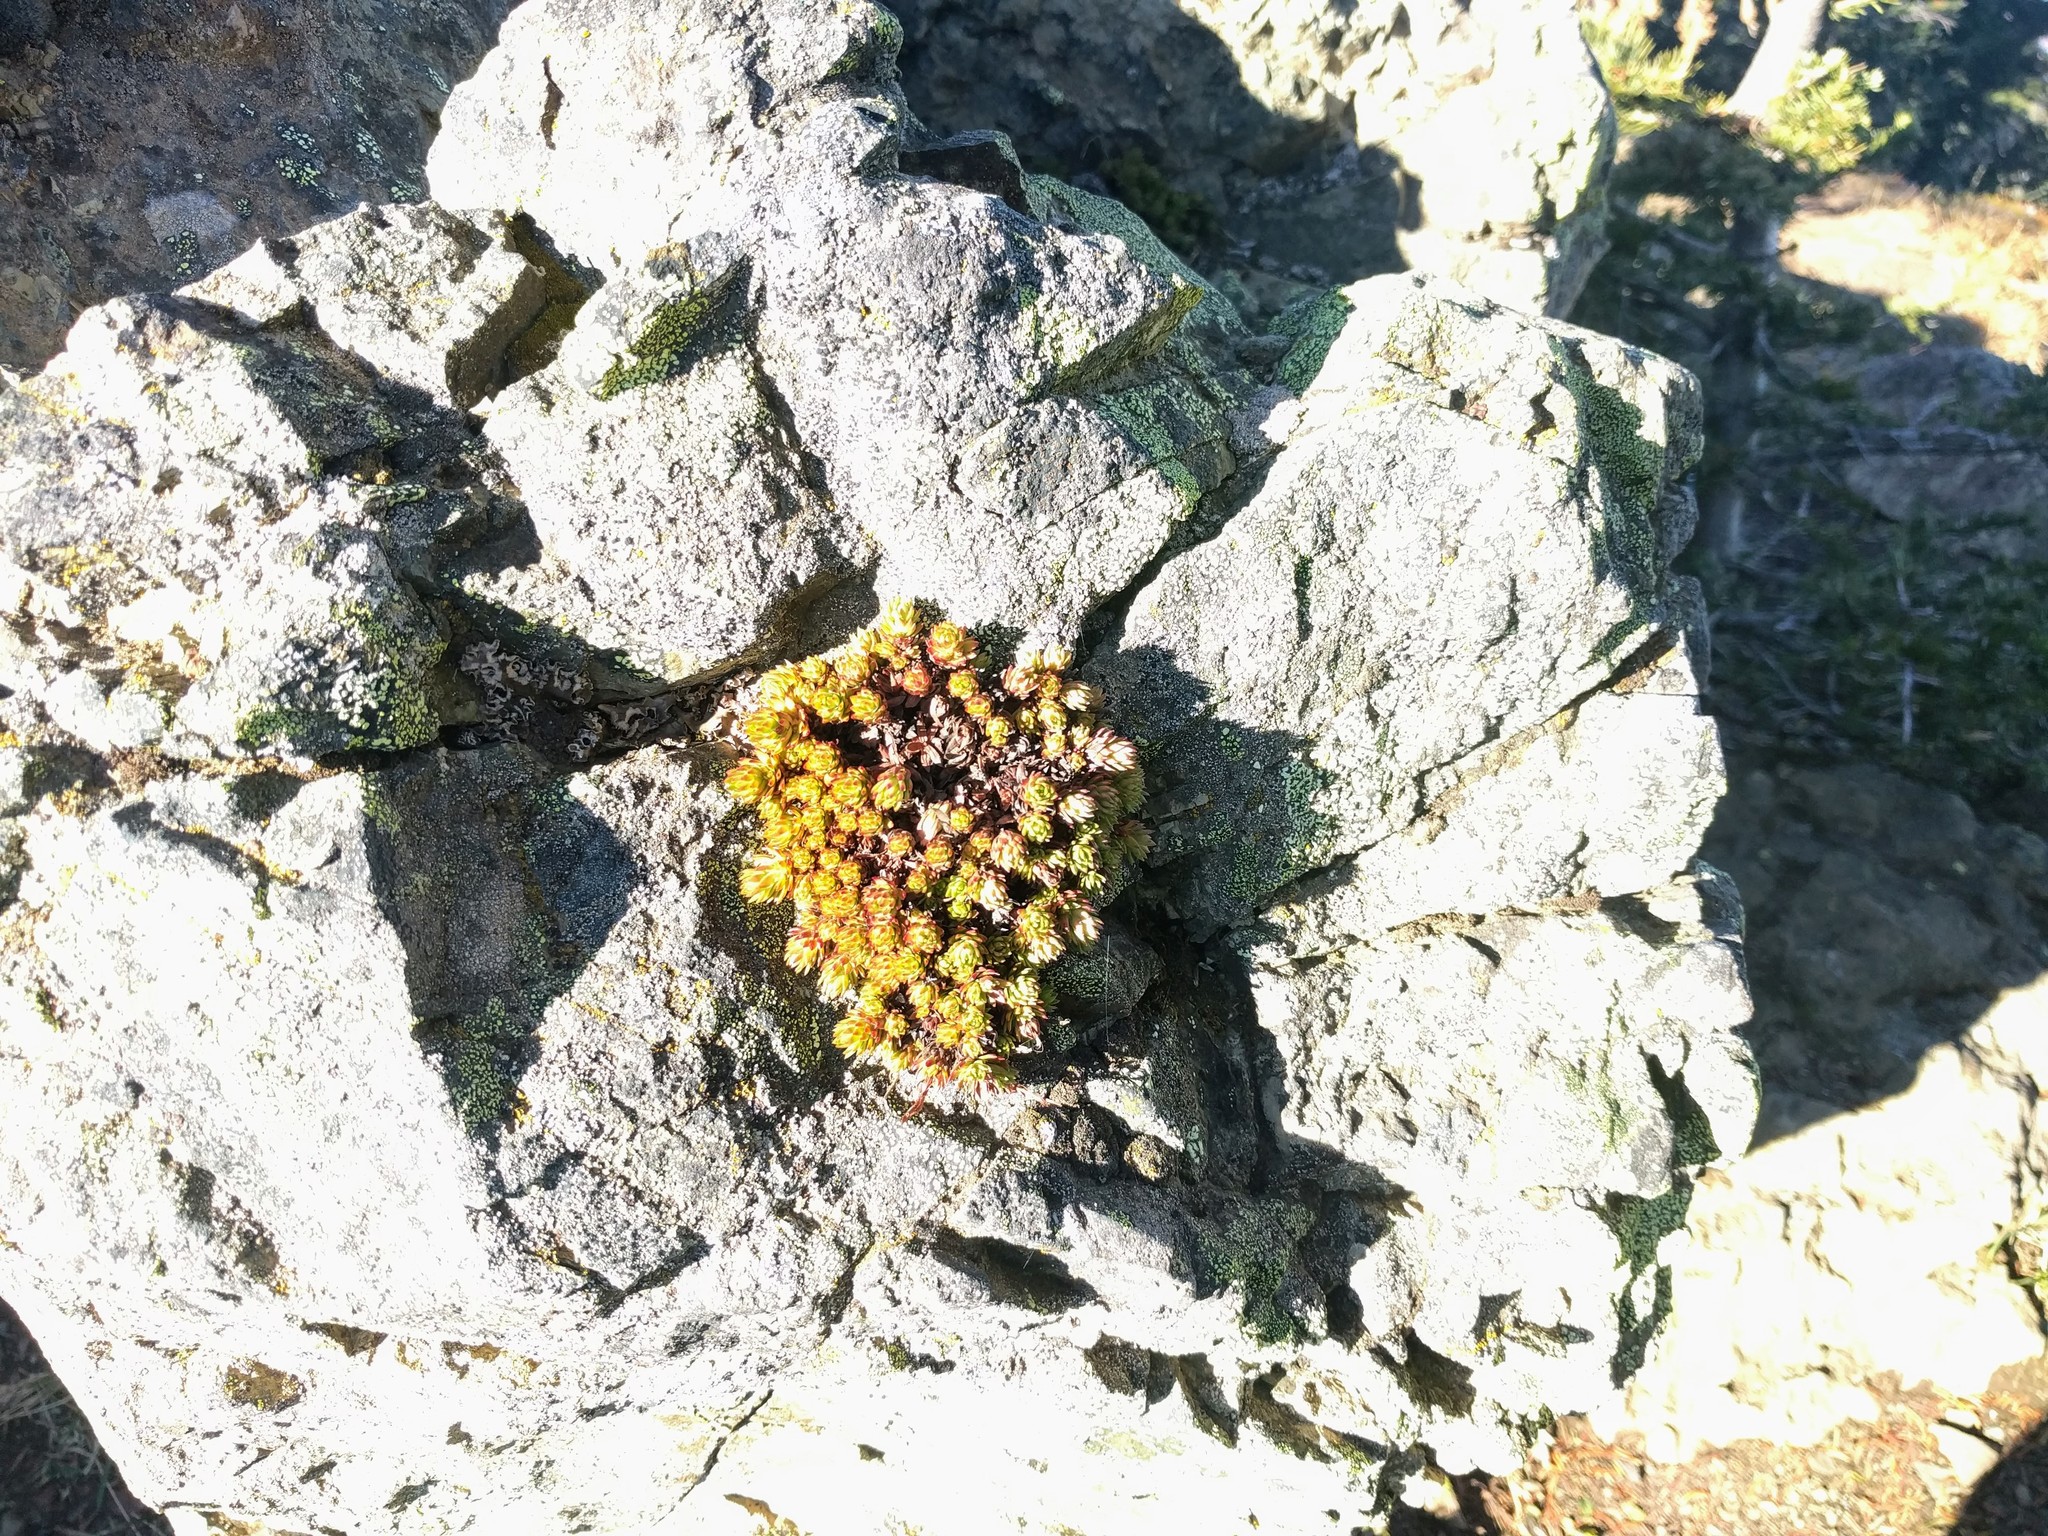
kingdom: Plantae
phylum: Tracheophyta
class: Magnoliopsida
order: Saxifragales
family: Saxifragaceae
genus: Saxifraga
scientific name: Saxifraga bronchialis
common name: Matted saxifrage
